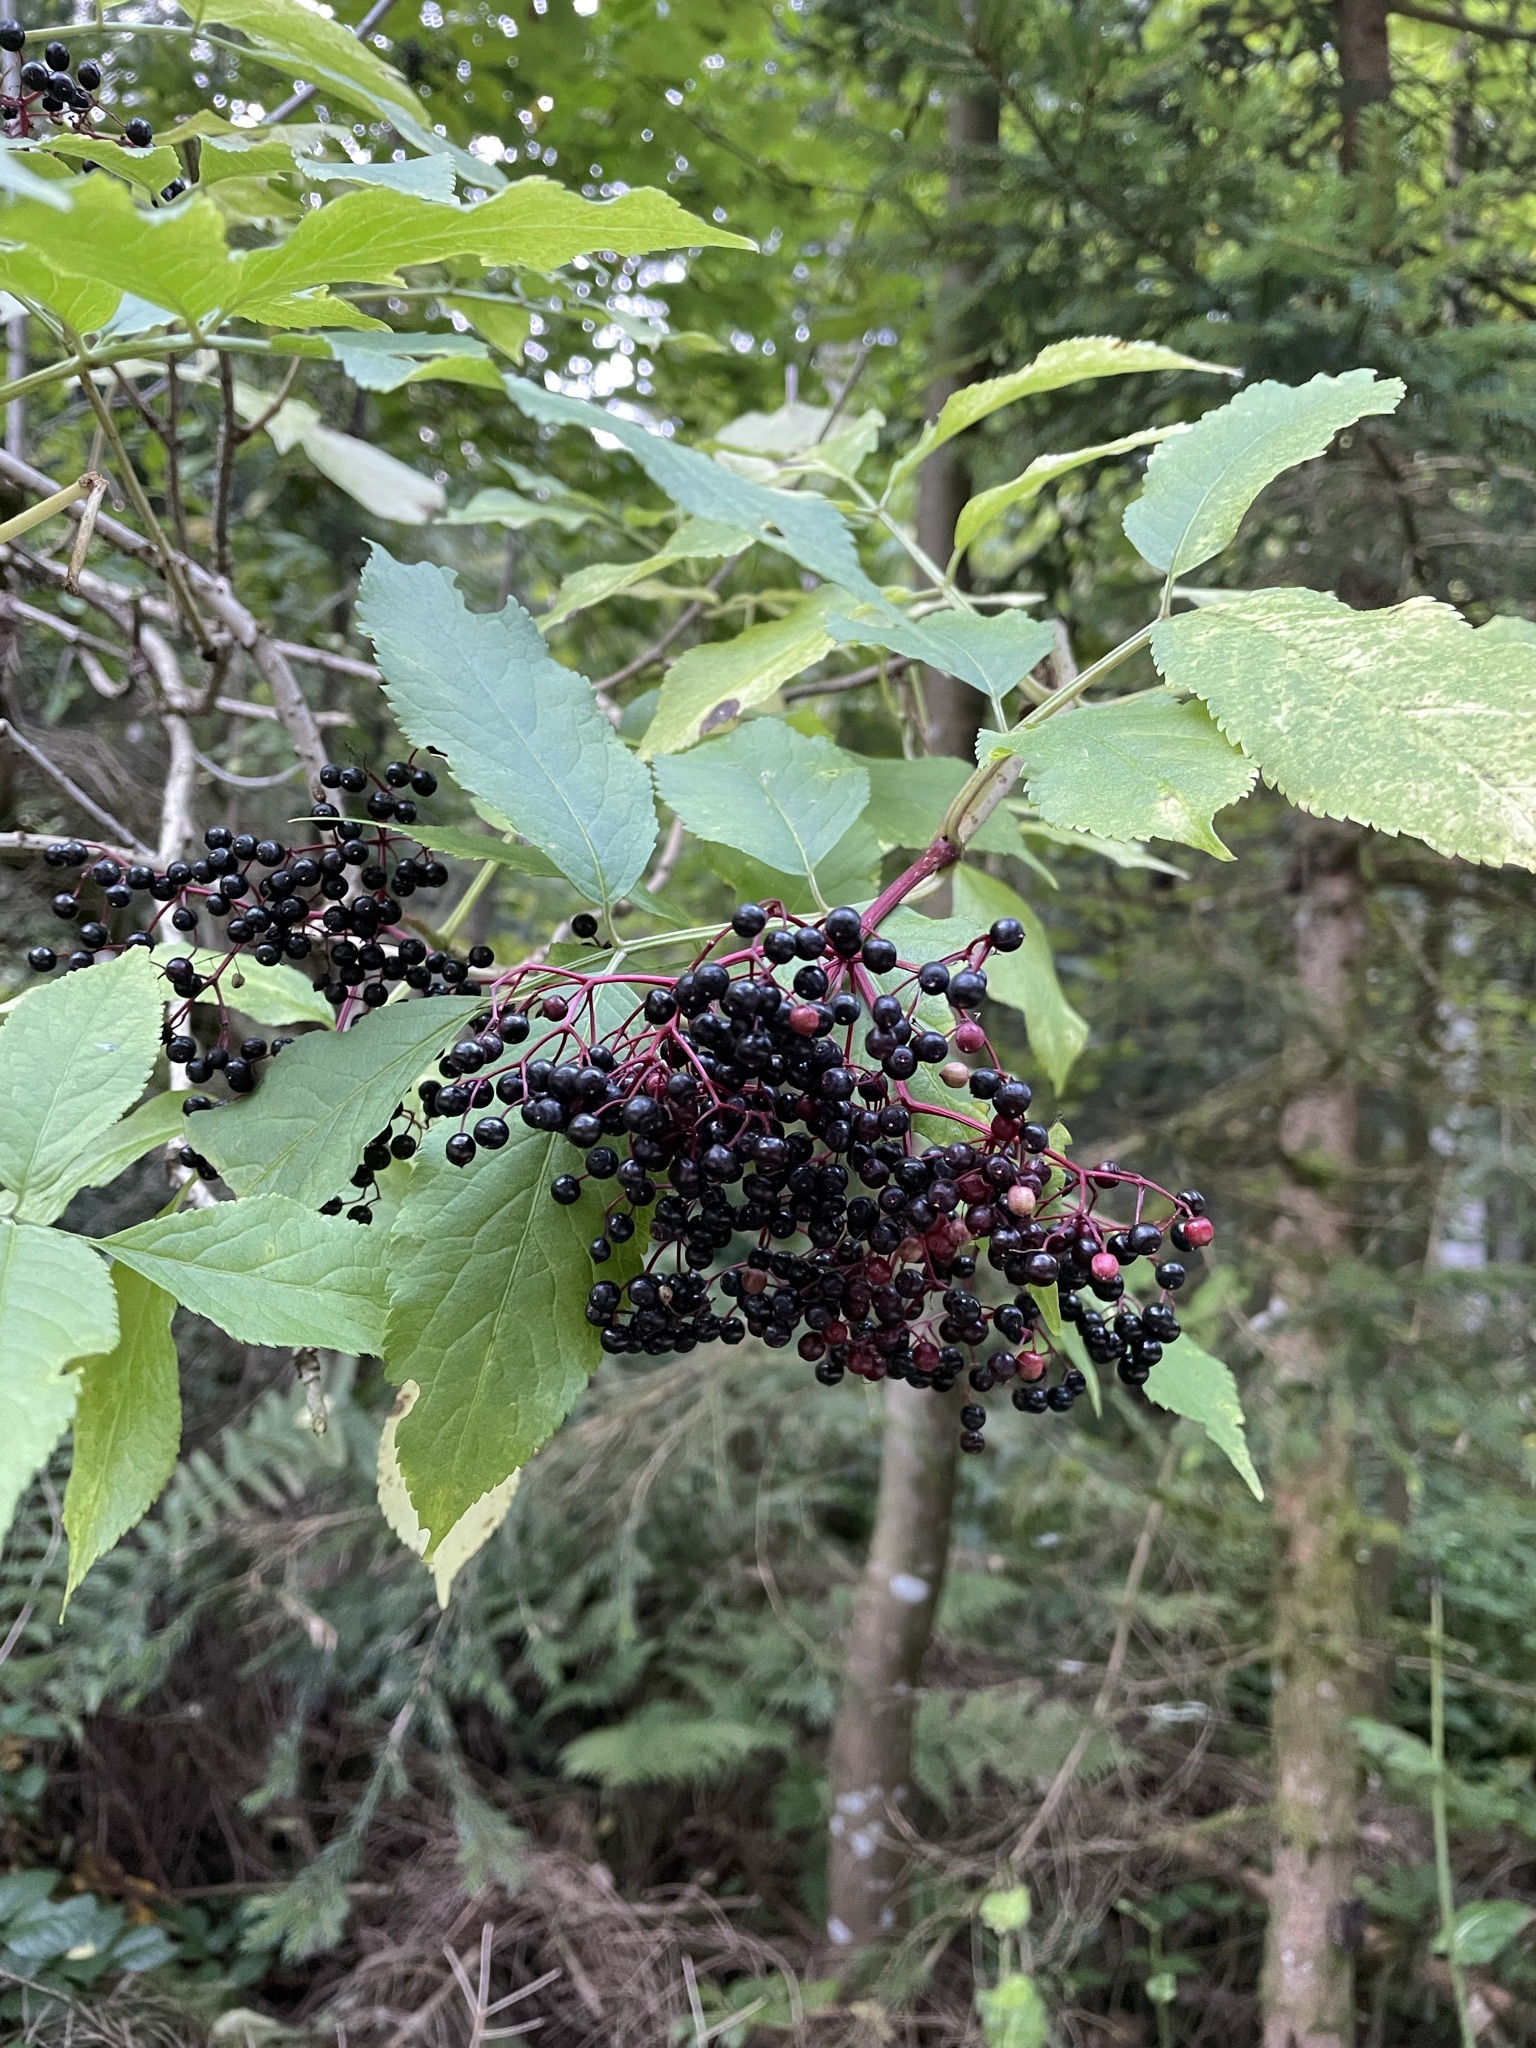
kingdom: Plantae
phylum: Tracheophyta
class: Magnoliopsida
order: Dipsacales
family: Viburnaceae
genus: Sambucus
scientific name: Sambucus nigra
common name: Elder
